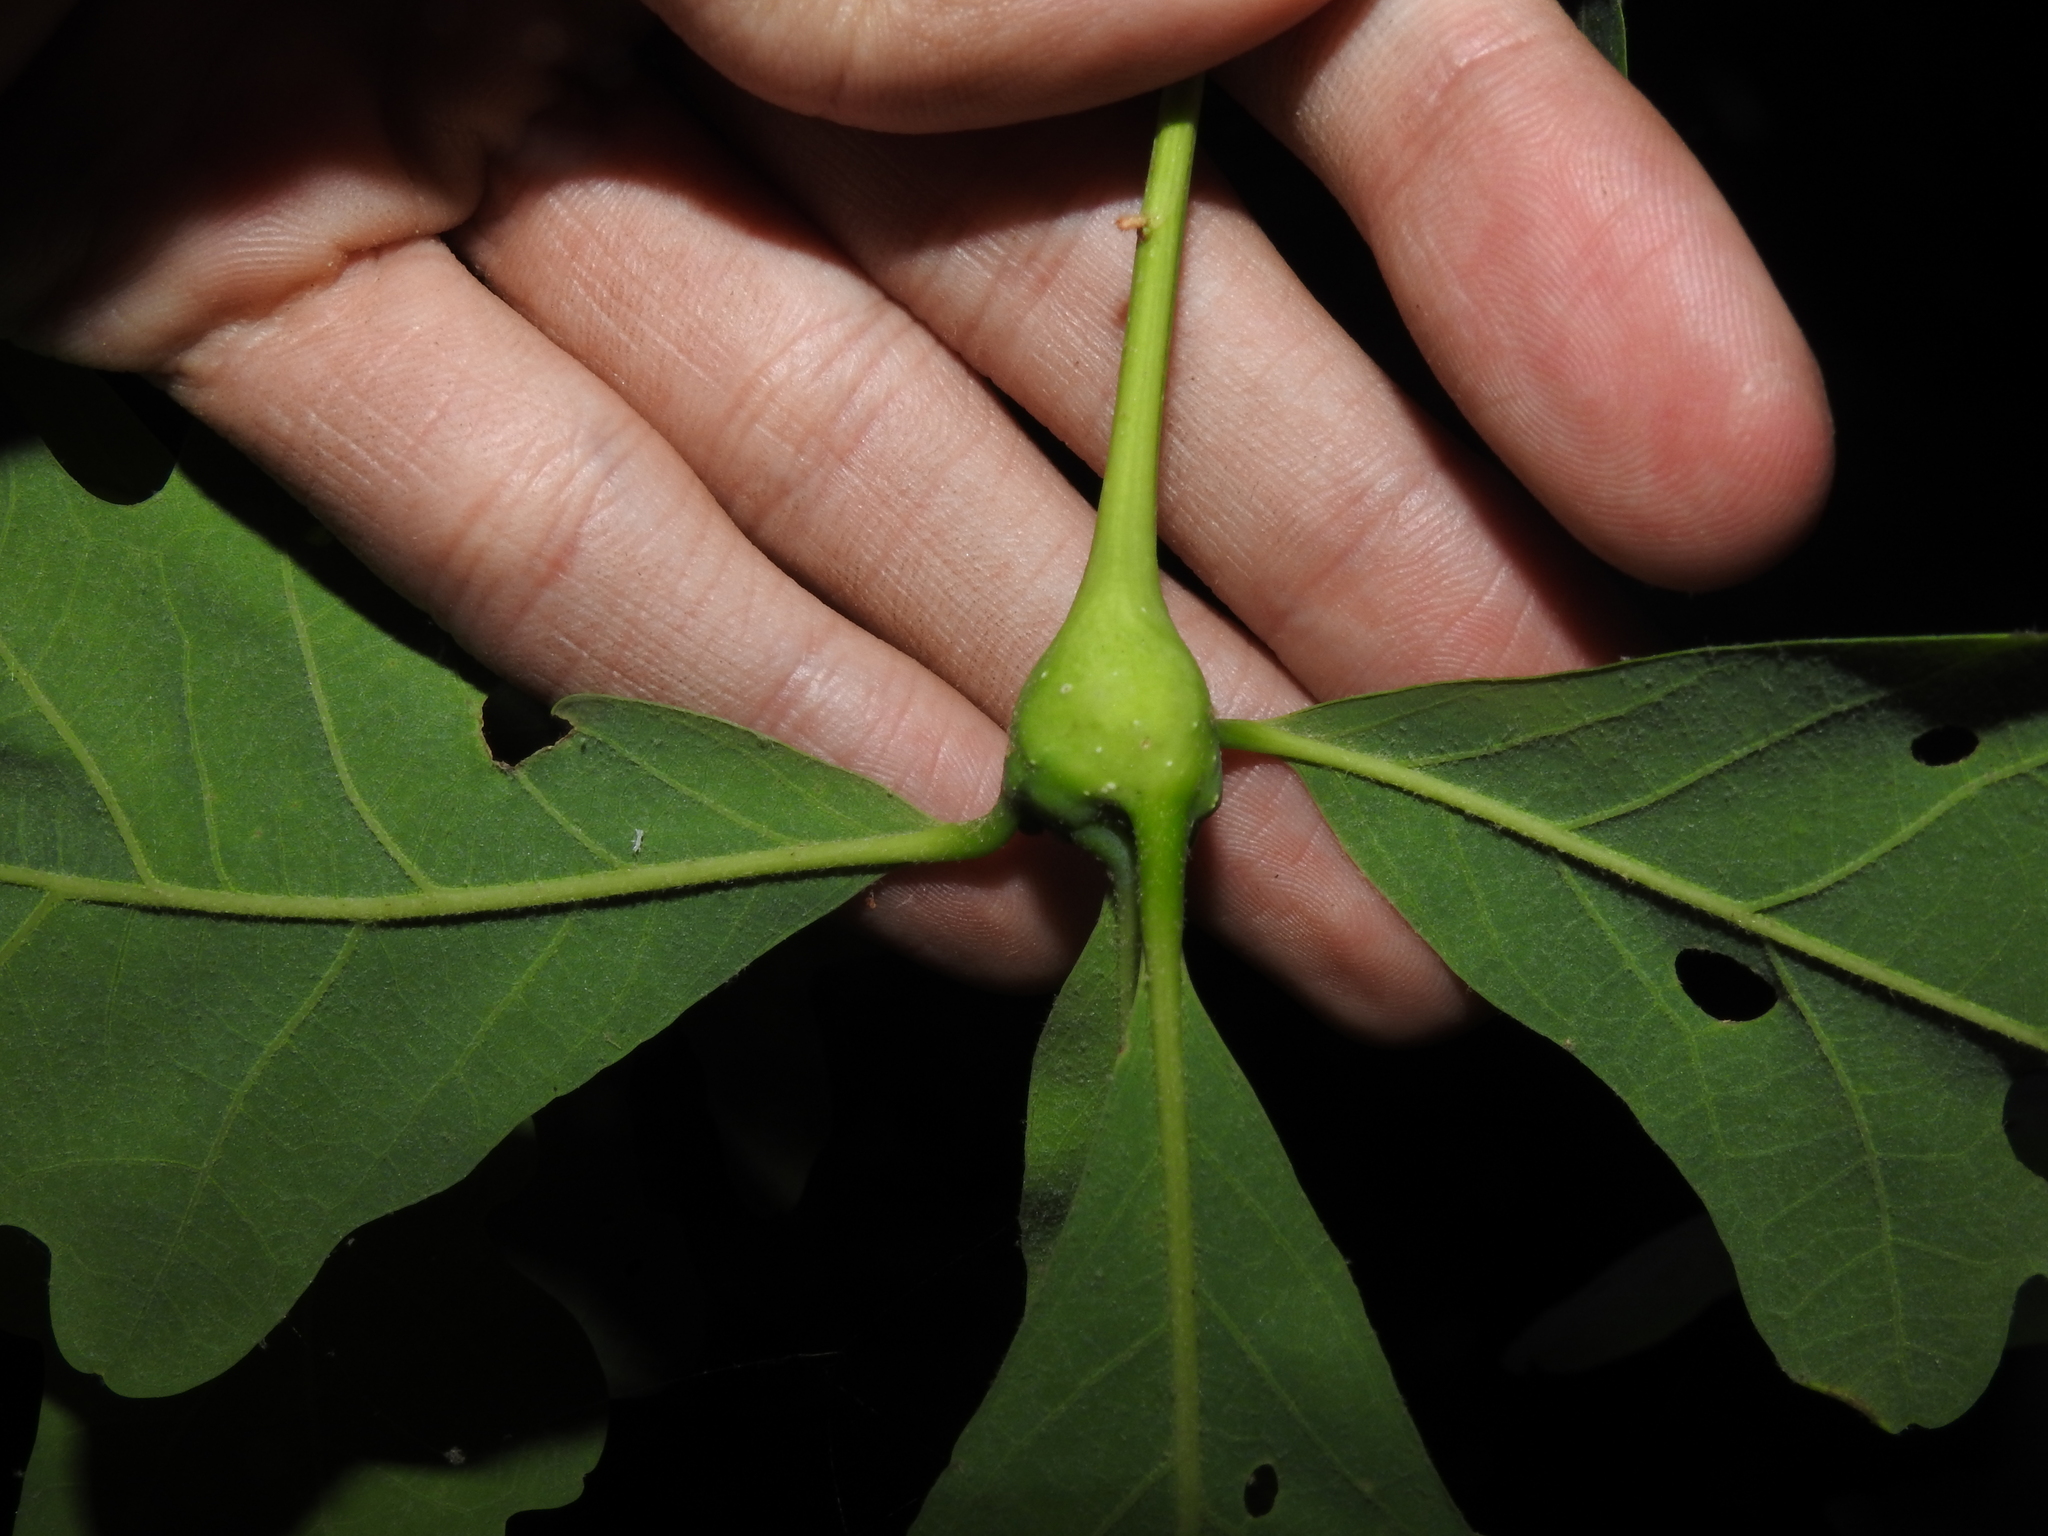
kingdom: Animalia
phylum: Arthropoda
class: Insecta
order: Hymenoptera
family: Cynipidae
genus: Callirhytis
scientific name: Callirhytis clavula
